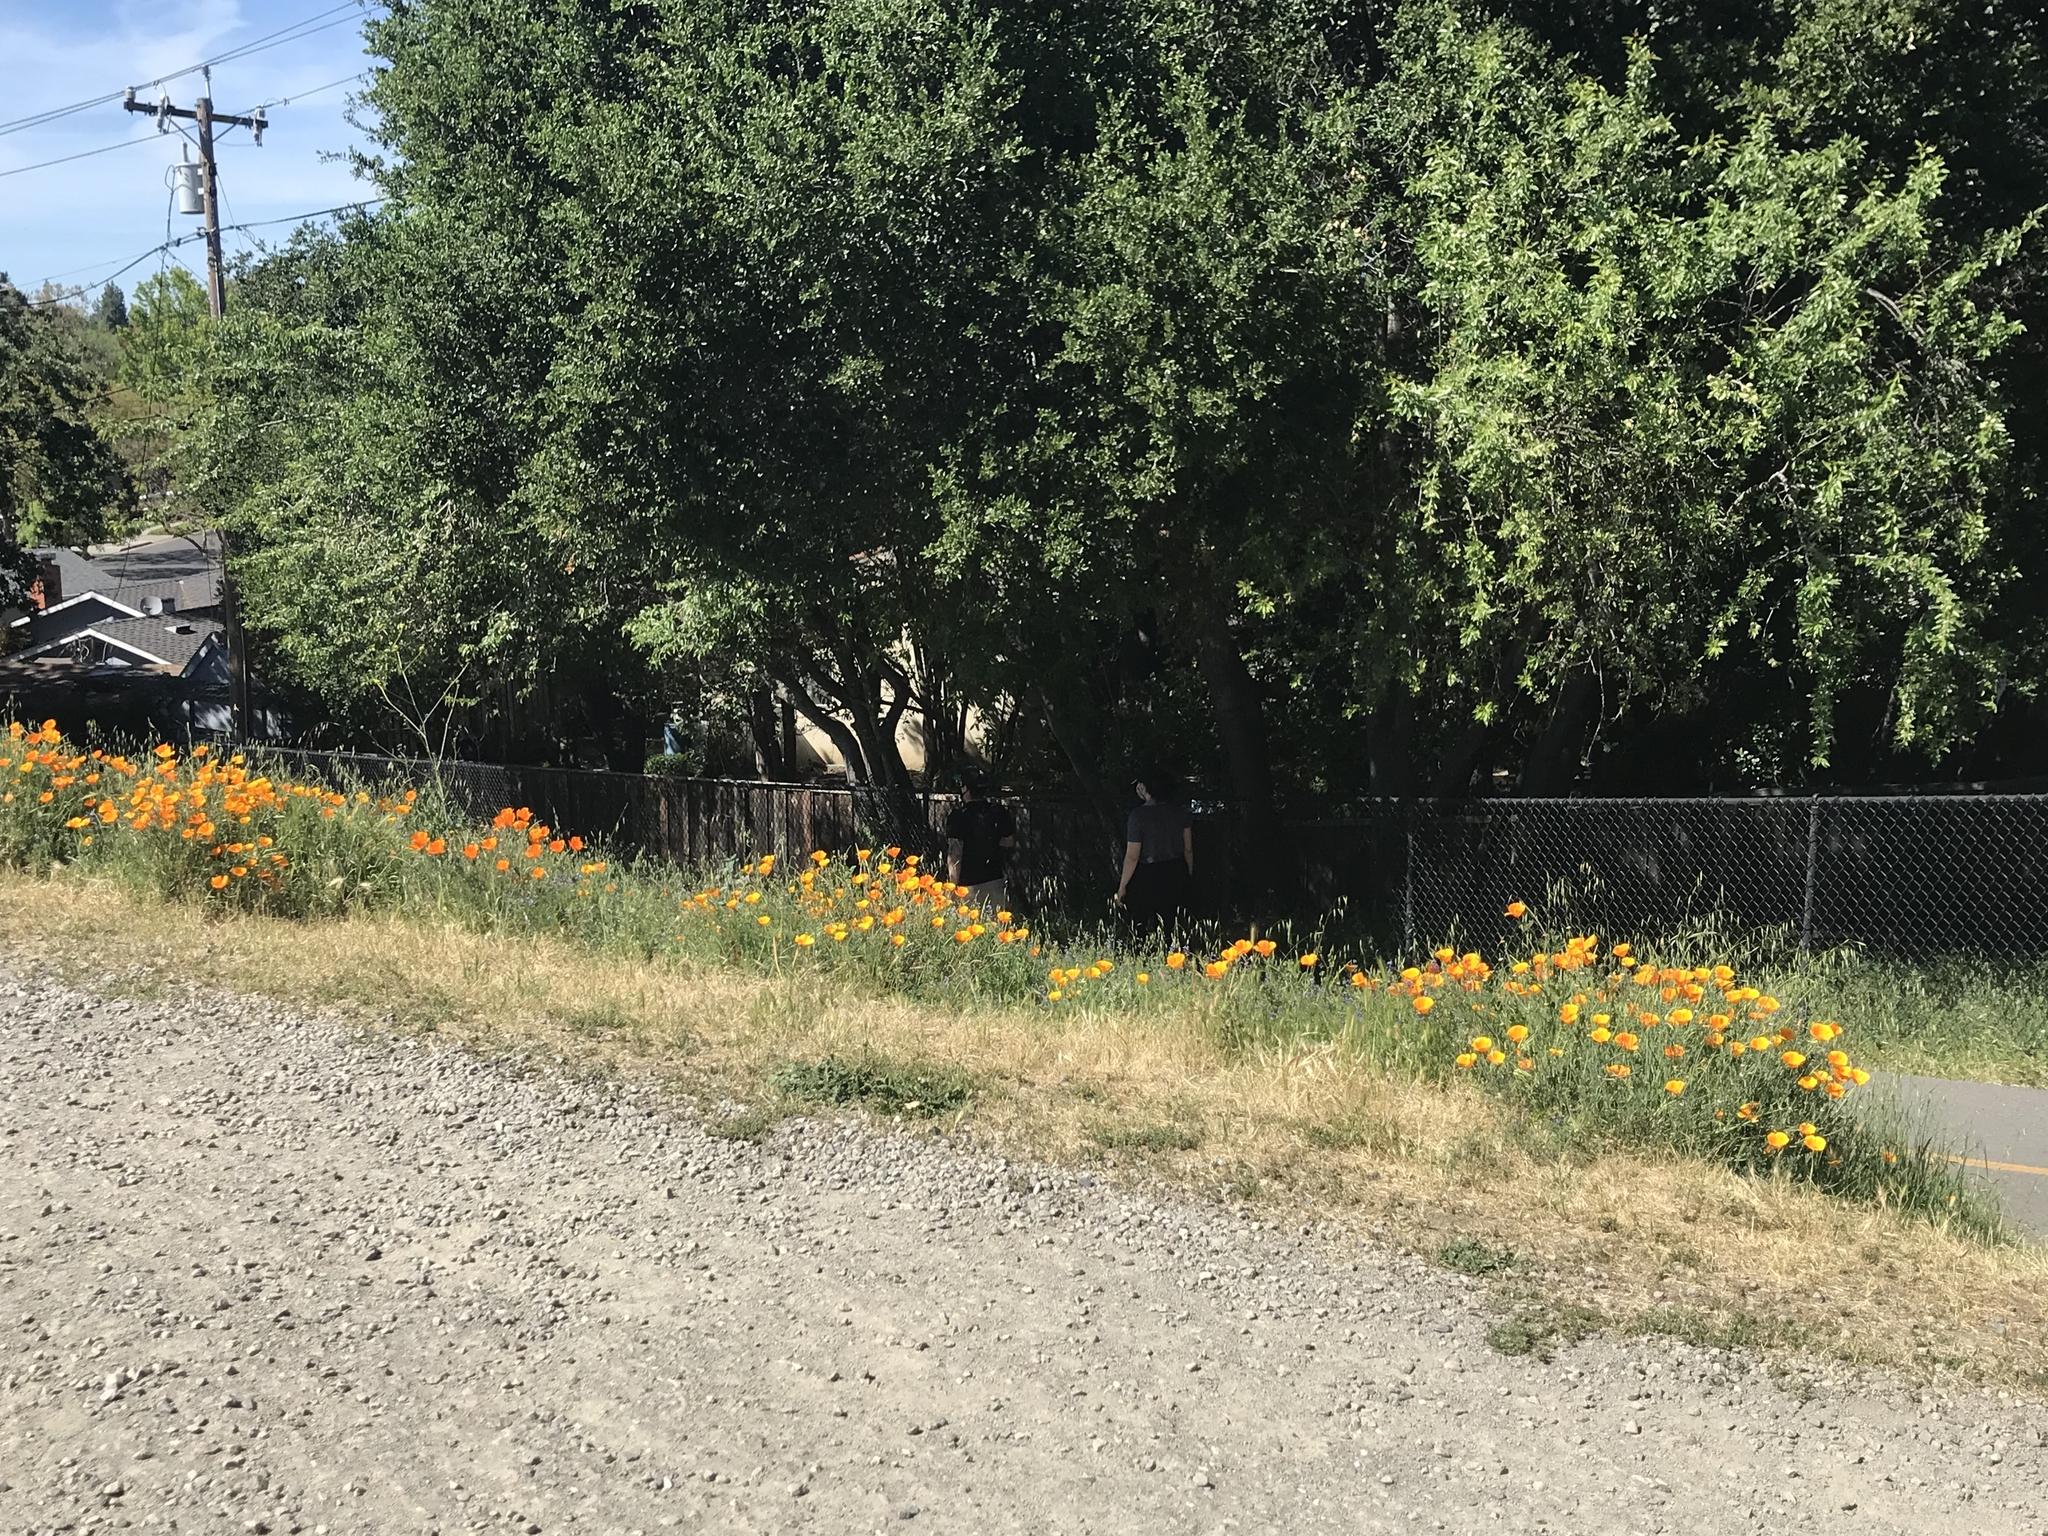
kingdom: Plantae
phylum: Tracheophyta
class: Magnoliopsida
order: Ranunculales
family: Papaveraceae
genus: Eschscholzia
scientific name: Eschscholzia californica
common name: California poppy
